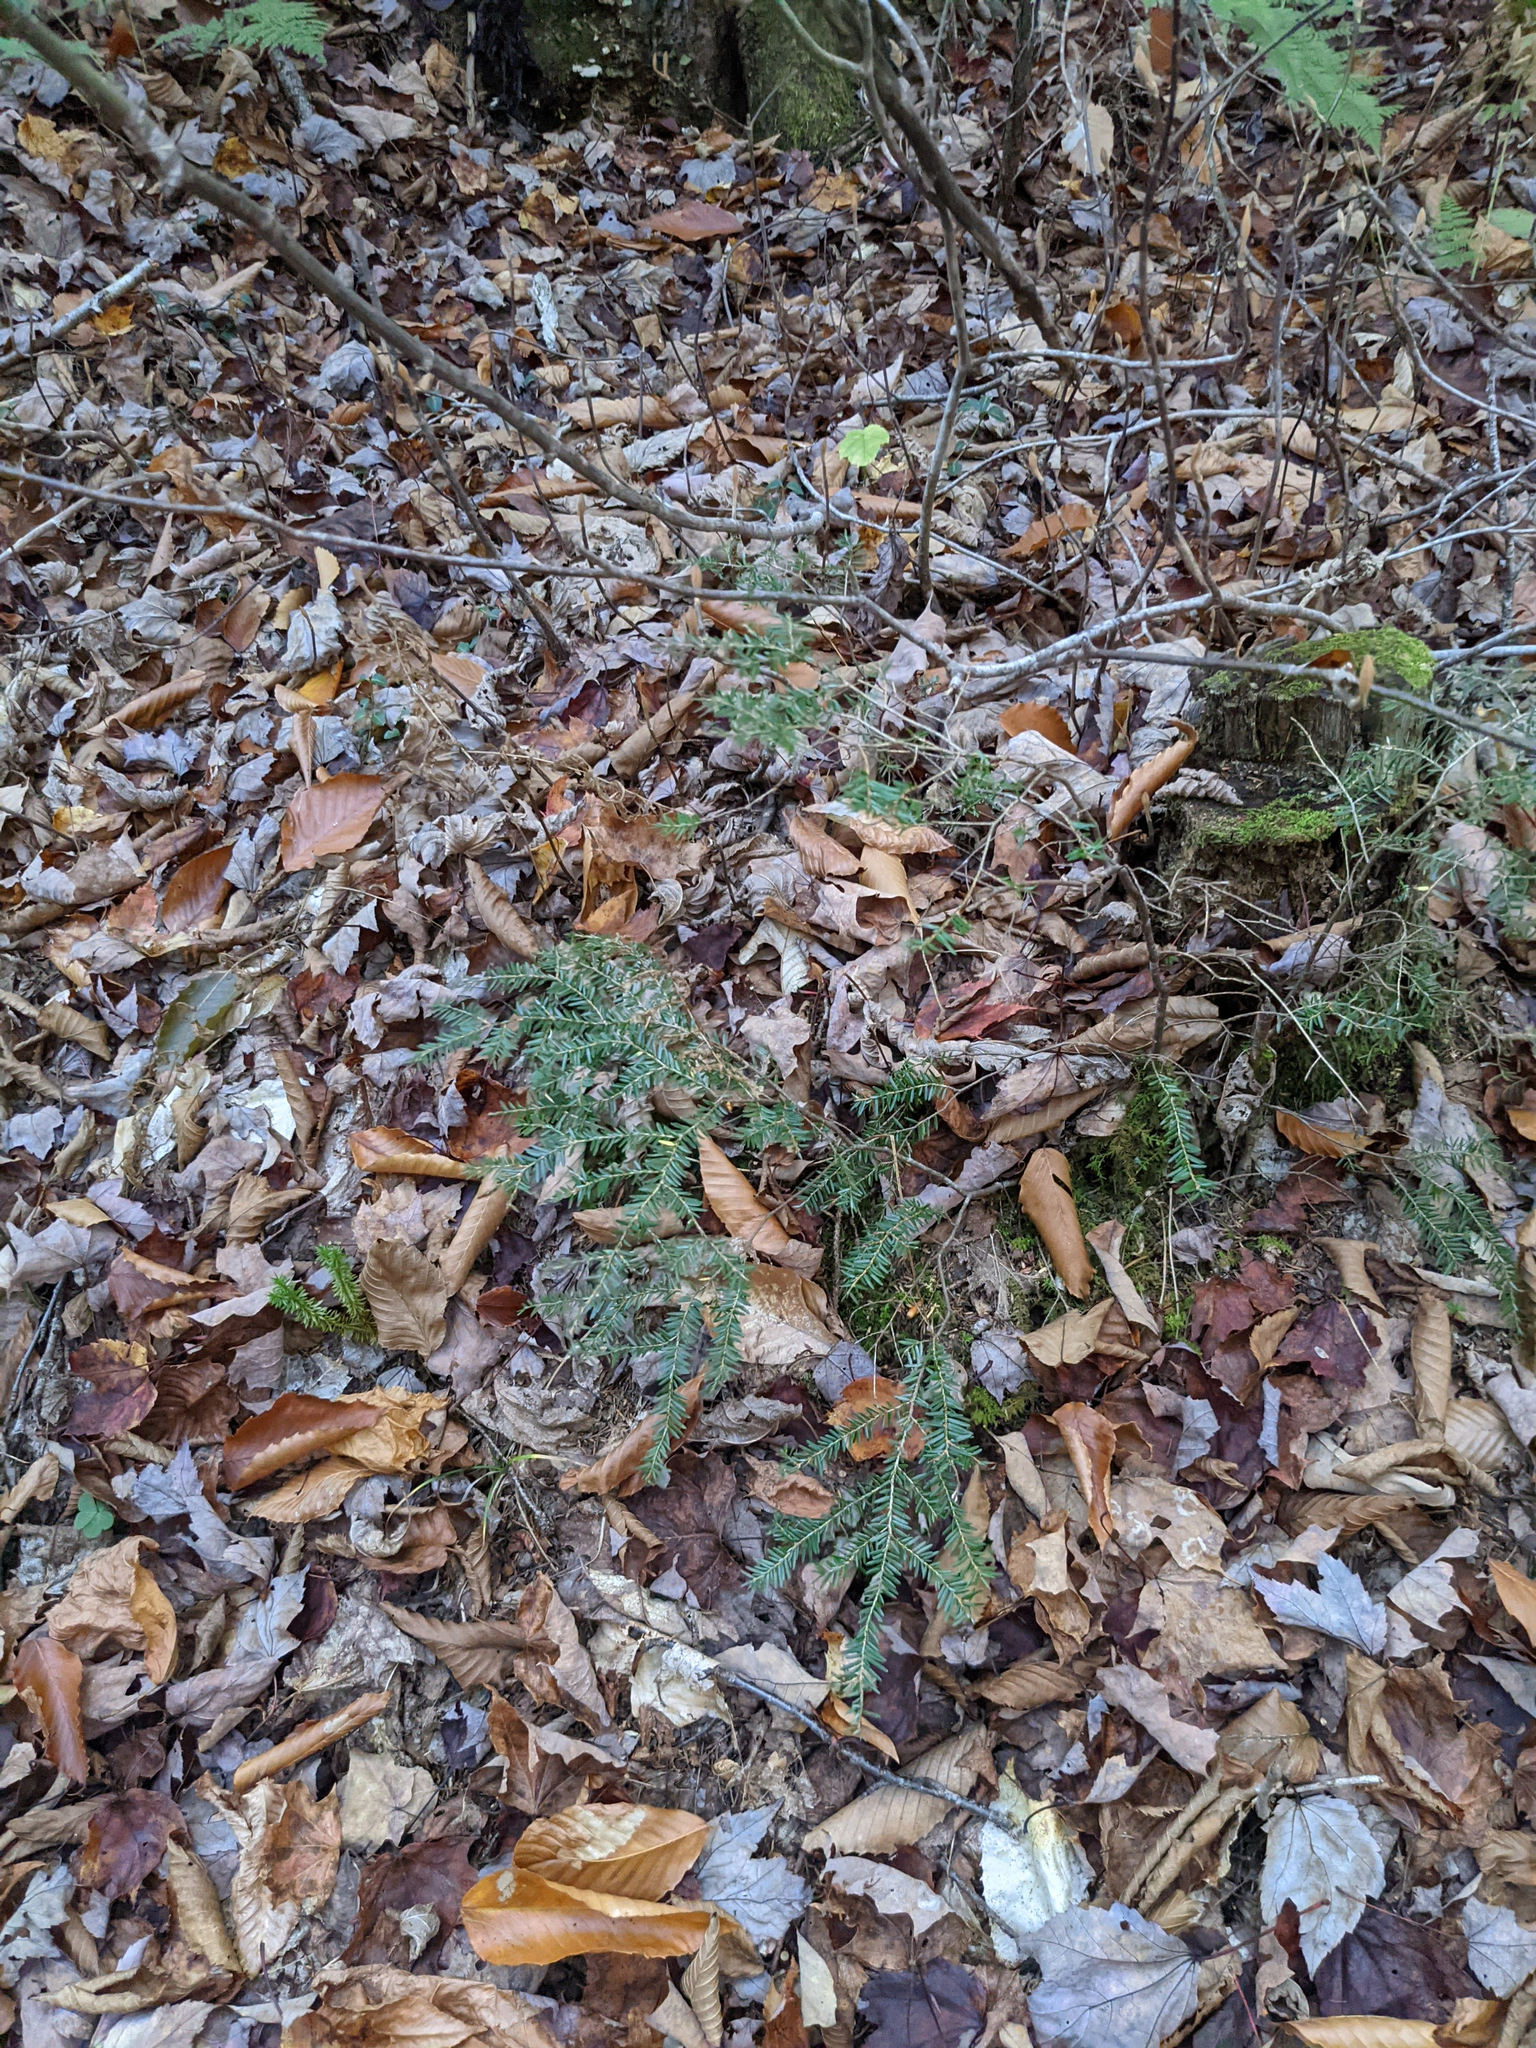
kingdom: Plantae
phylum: Tracheophyta
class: Pinopsida
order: Pinales
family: Pinaceae
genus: Tsuga
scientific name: Tsuga canadensis
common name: Eastern hemlock
